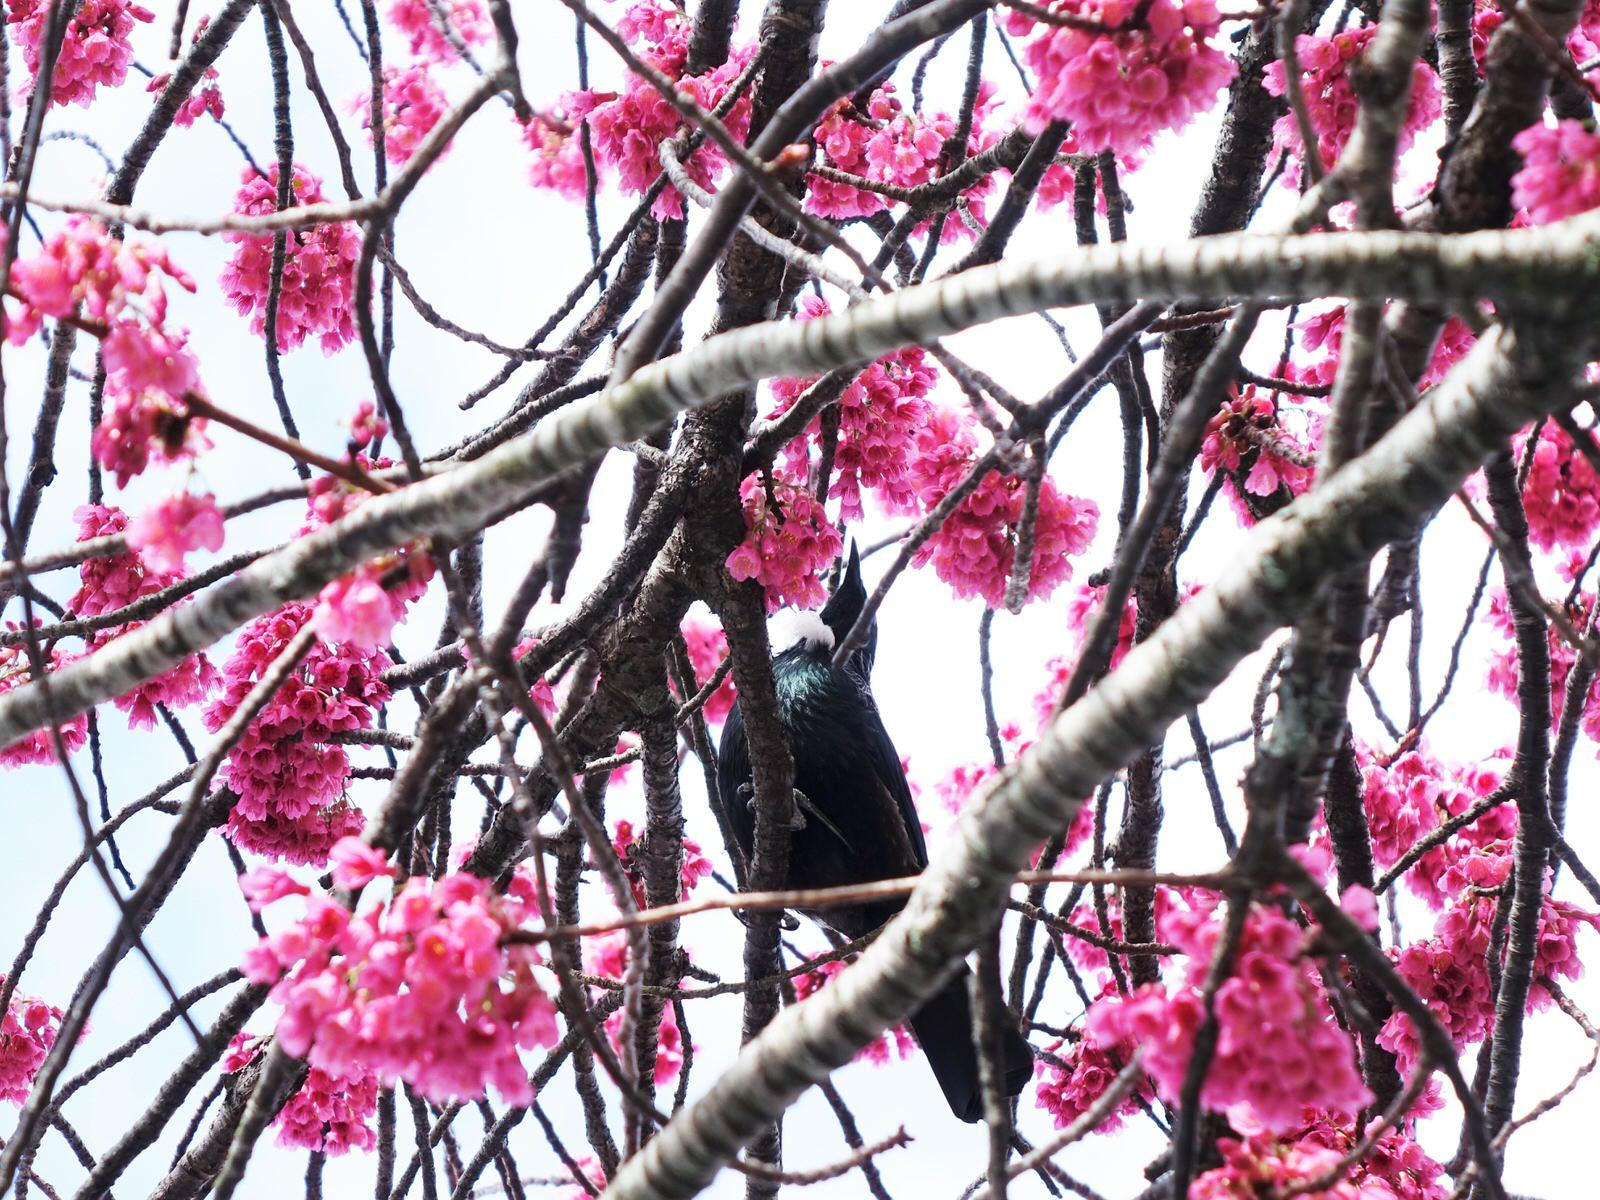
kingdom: Animalia
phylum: Chordata
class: Aves
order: Passeriformes
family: Meliphagidae
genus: Prosthemadera
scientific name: Prosthemadera novaeseelandiae
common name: Tui
